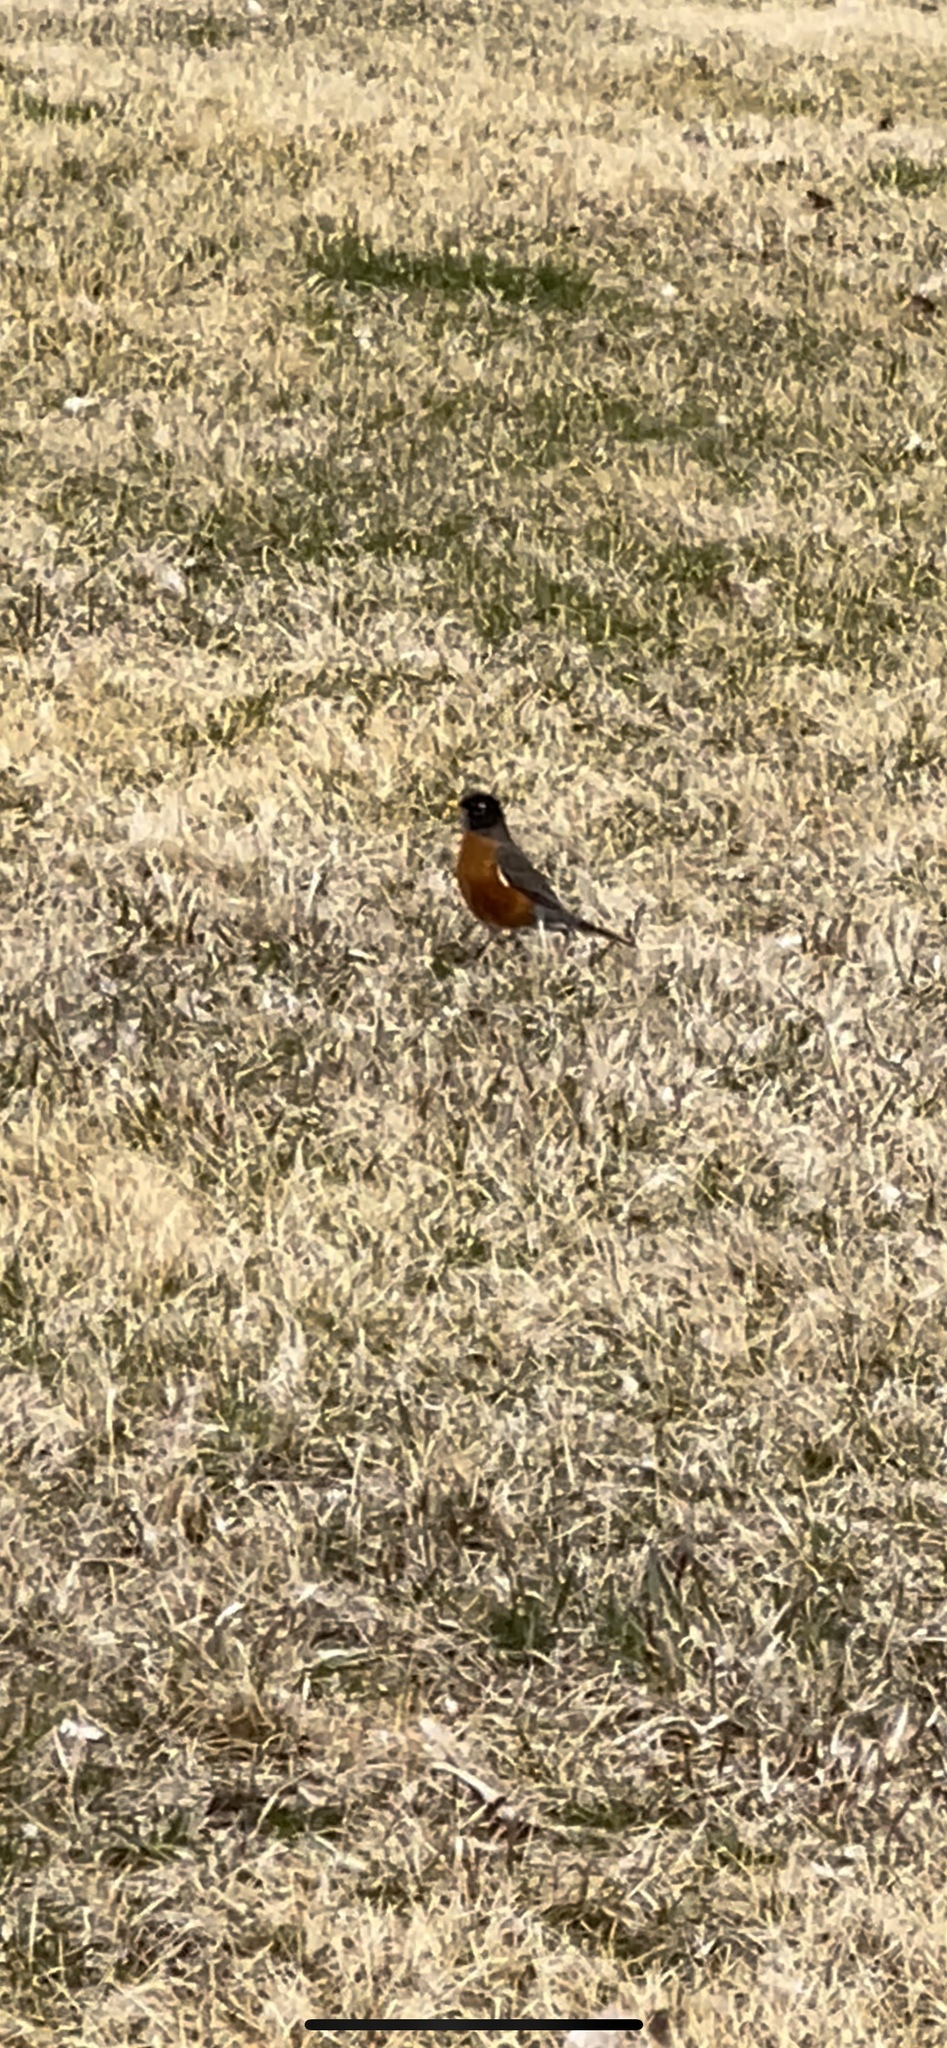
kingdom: Animalia
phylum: Chordata
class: Aves
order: Passeriformes
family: Turdidae
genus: Turdus
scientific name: Turdus migratorius
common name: American robin
